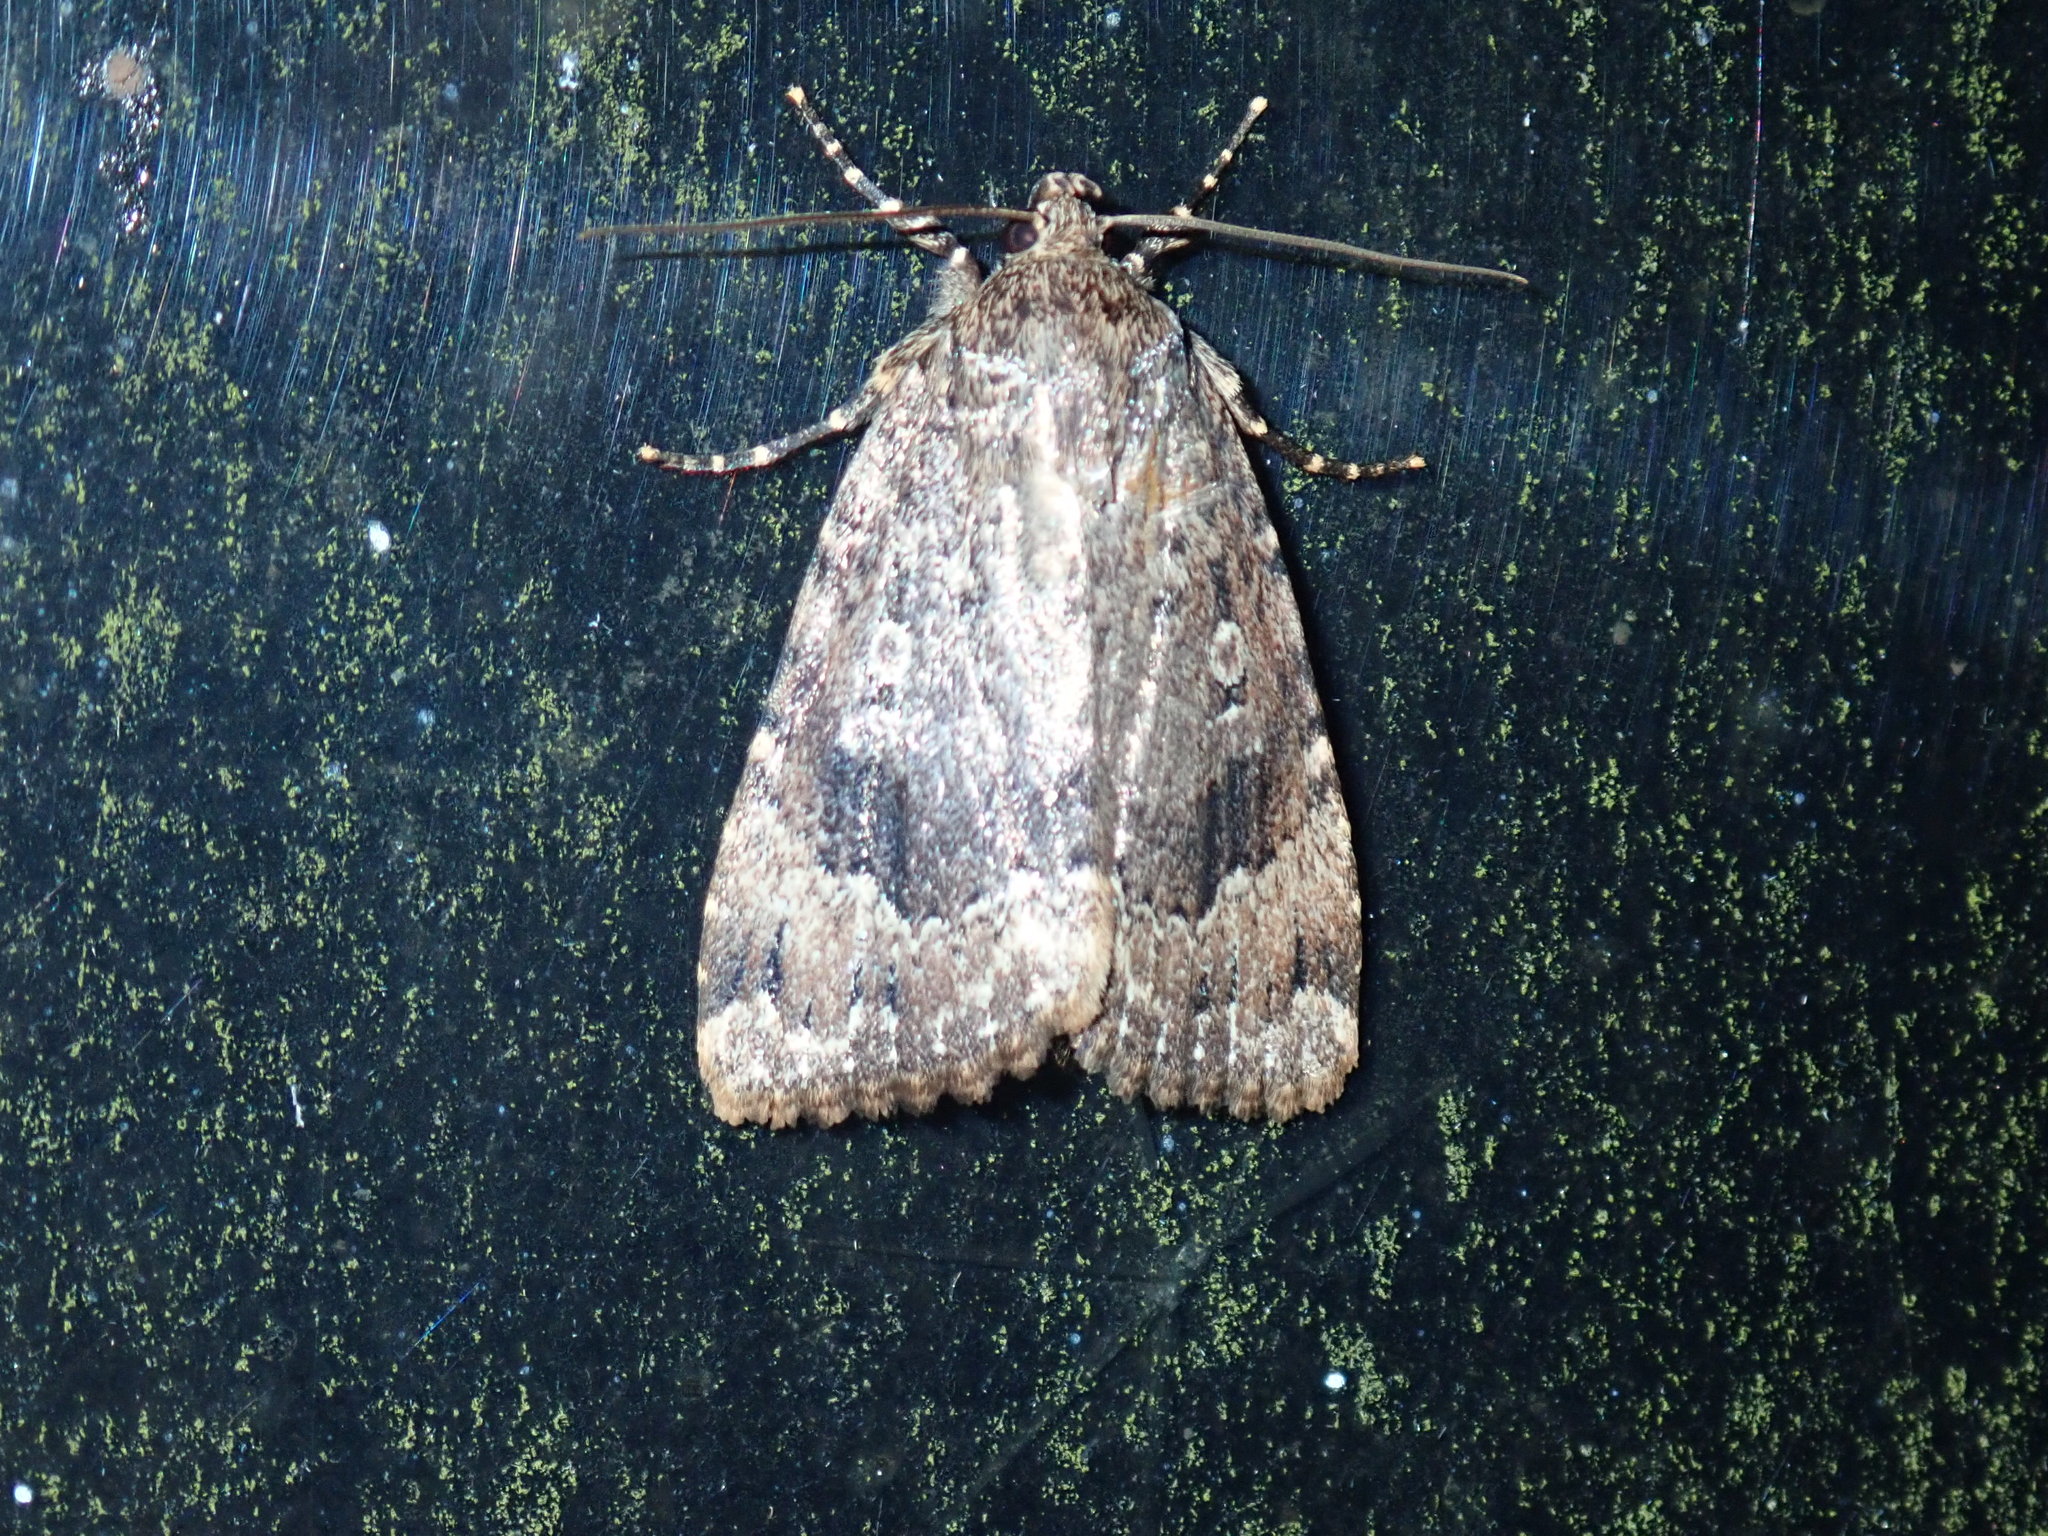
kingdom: Animalia
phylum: Arthropoda
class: Insecta
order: Lepidoptera
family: Noctuidae
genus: Amphipyra
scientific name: Amphipyra pyramidoides
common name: American copper underwing
